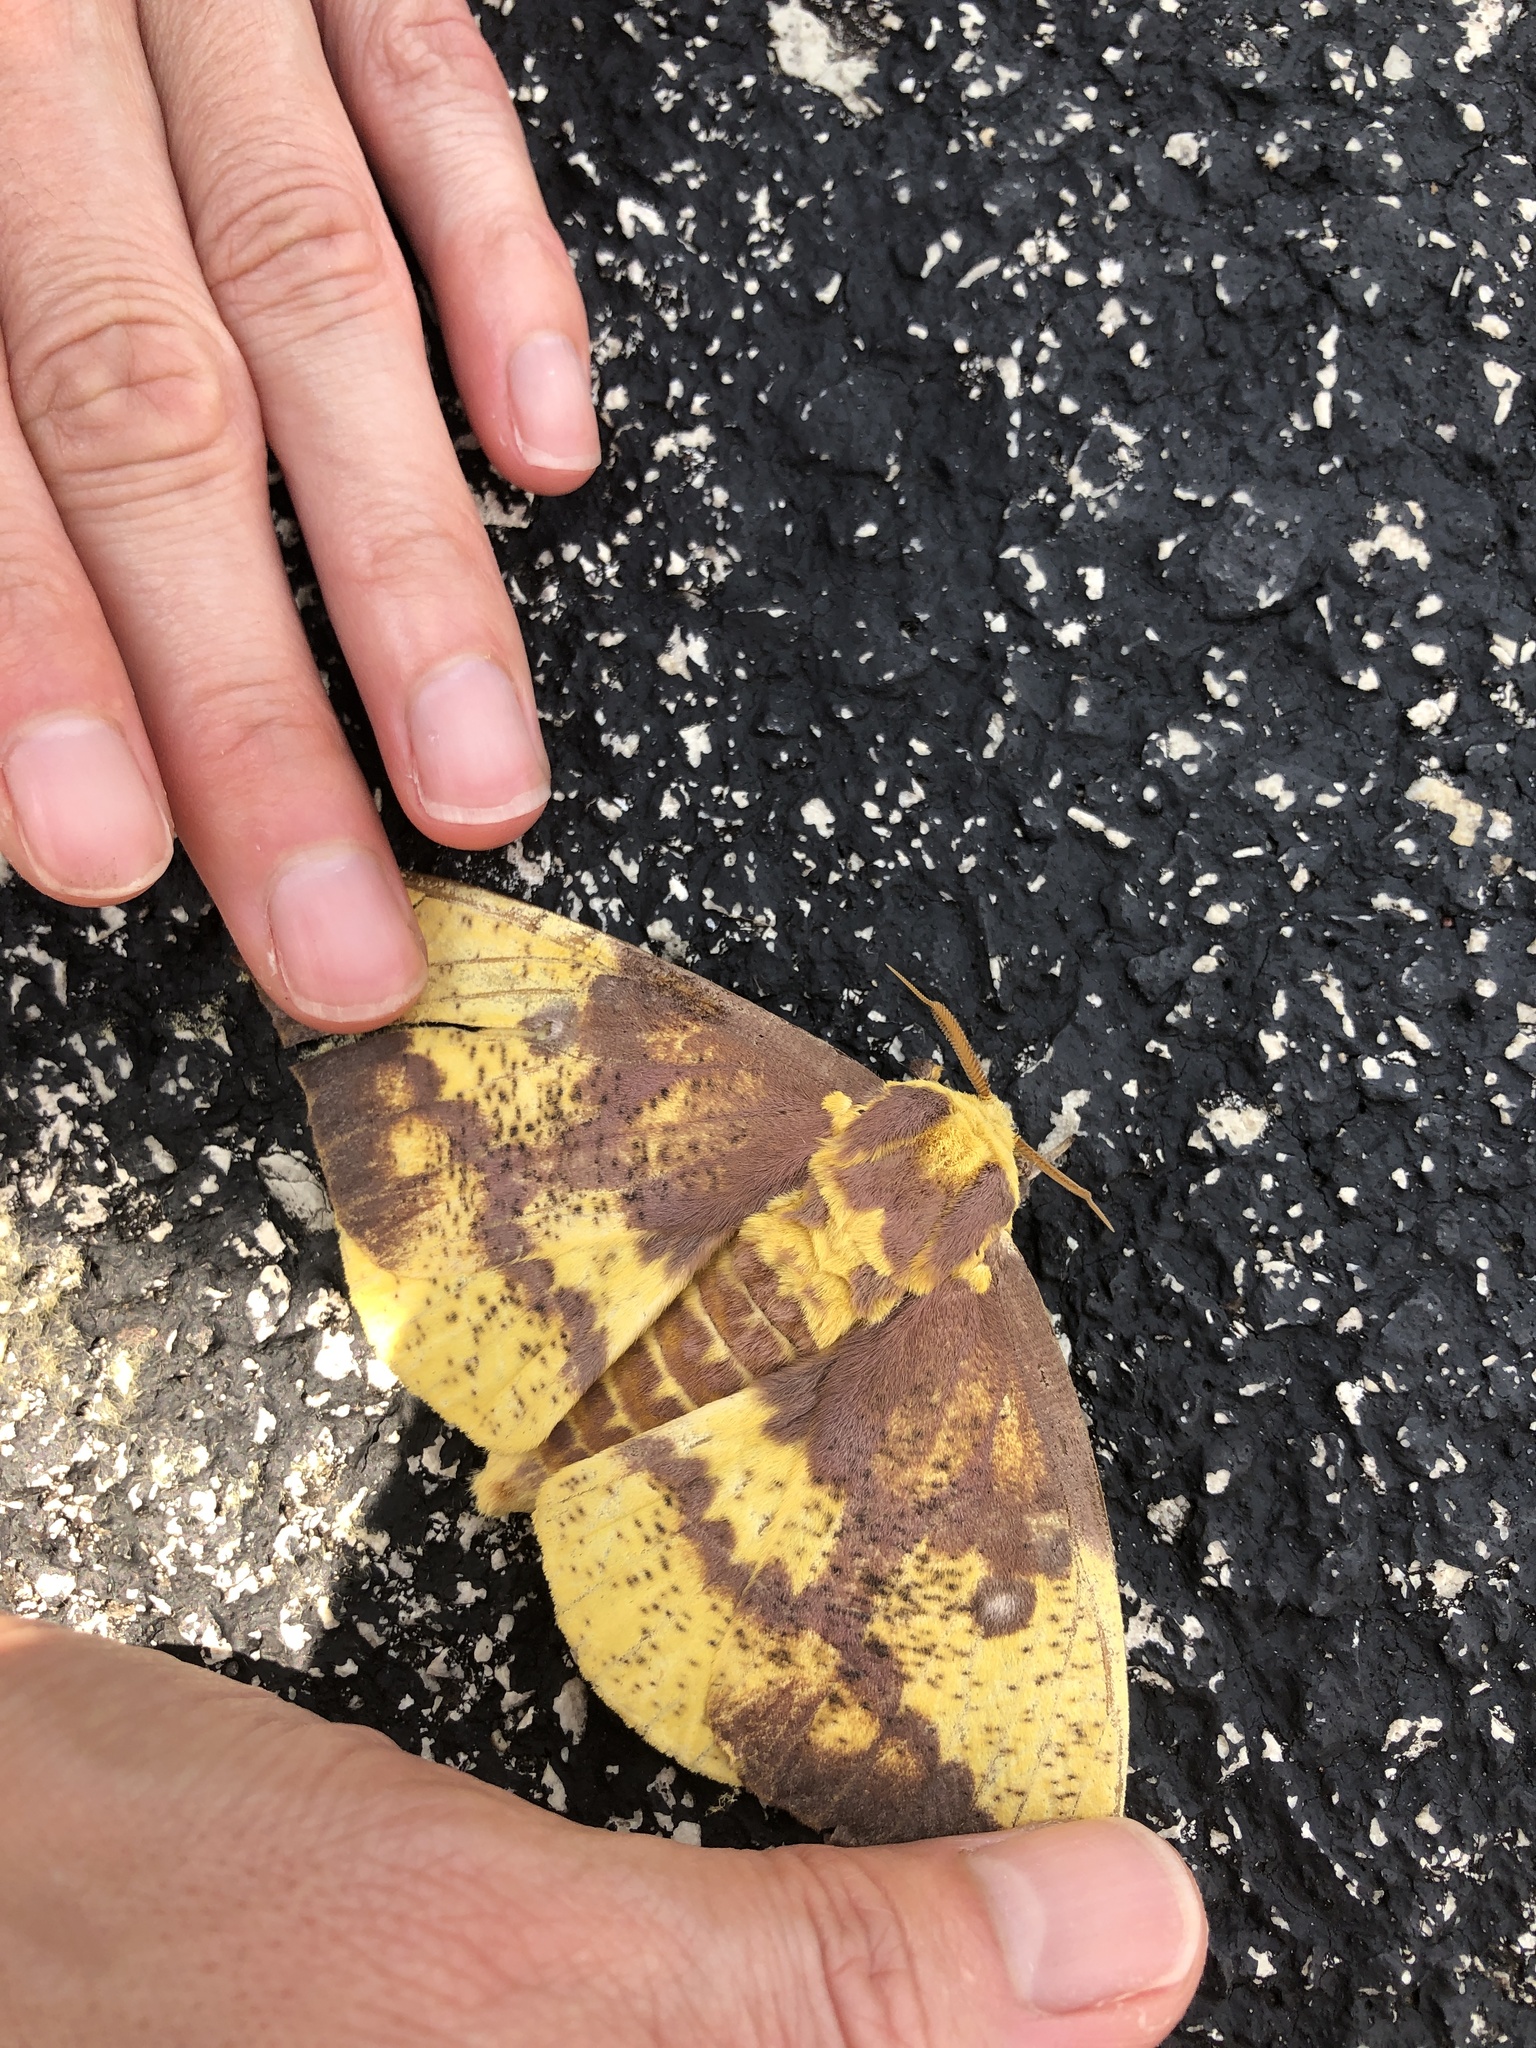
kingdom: Animalia
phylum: Arthropoda
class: Insecta
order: Lepidoptera
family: Saturniidae
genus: Eacles
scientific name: Eacles imperialis
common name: Imperial moth
